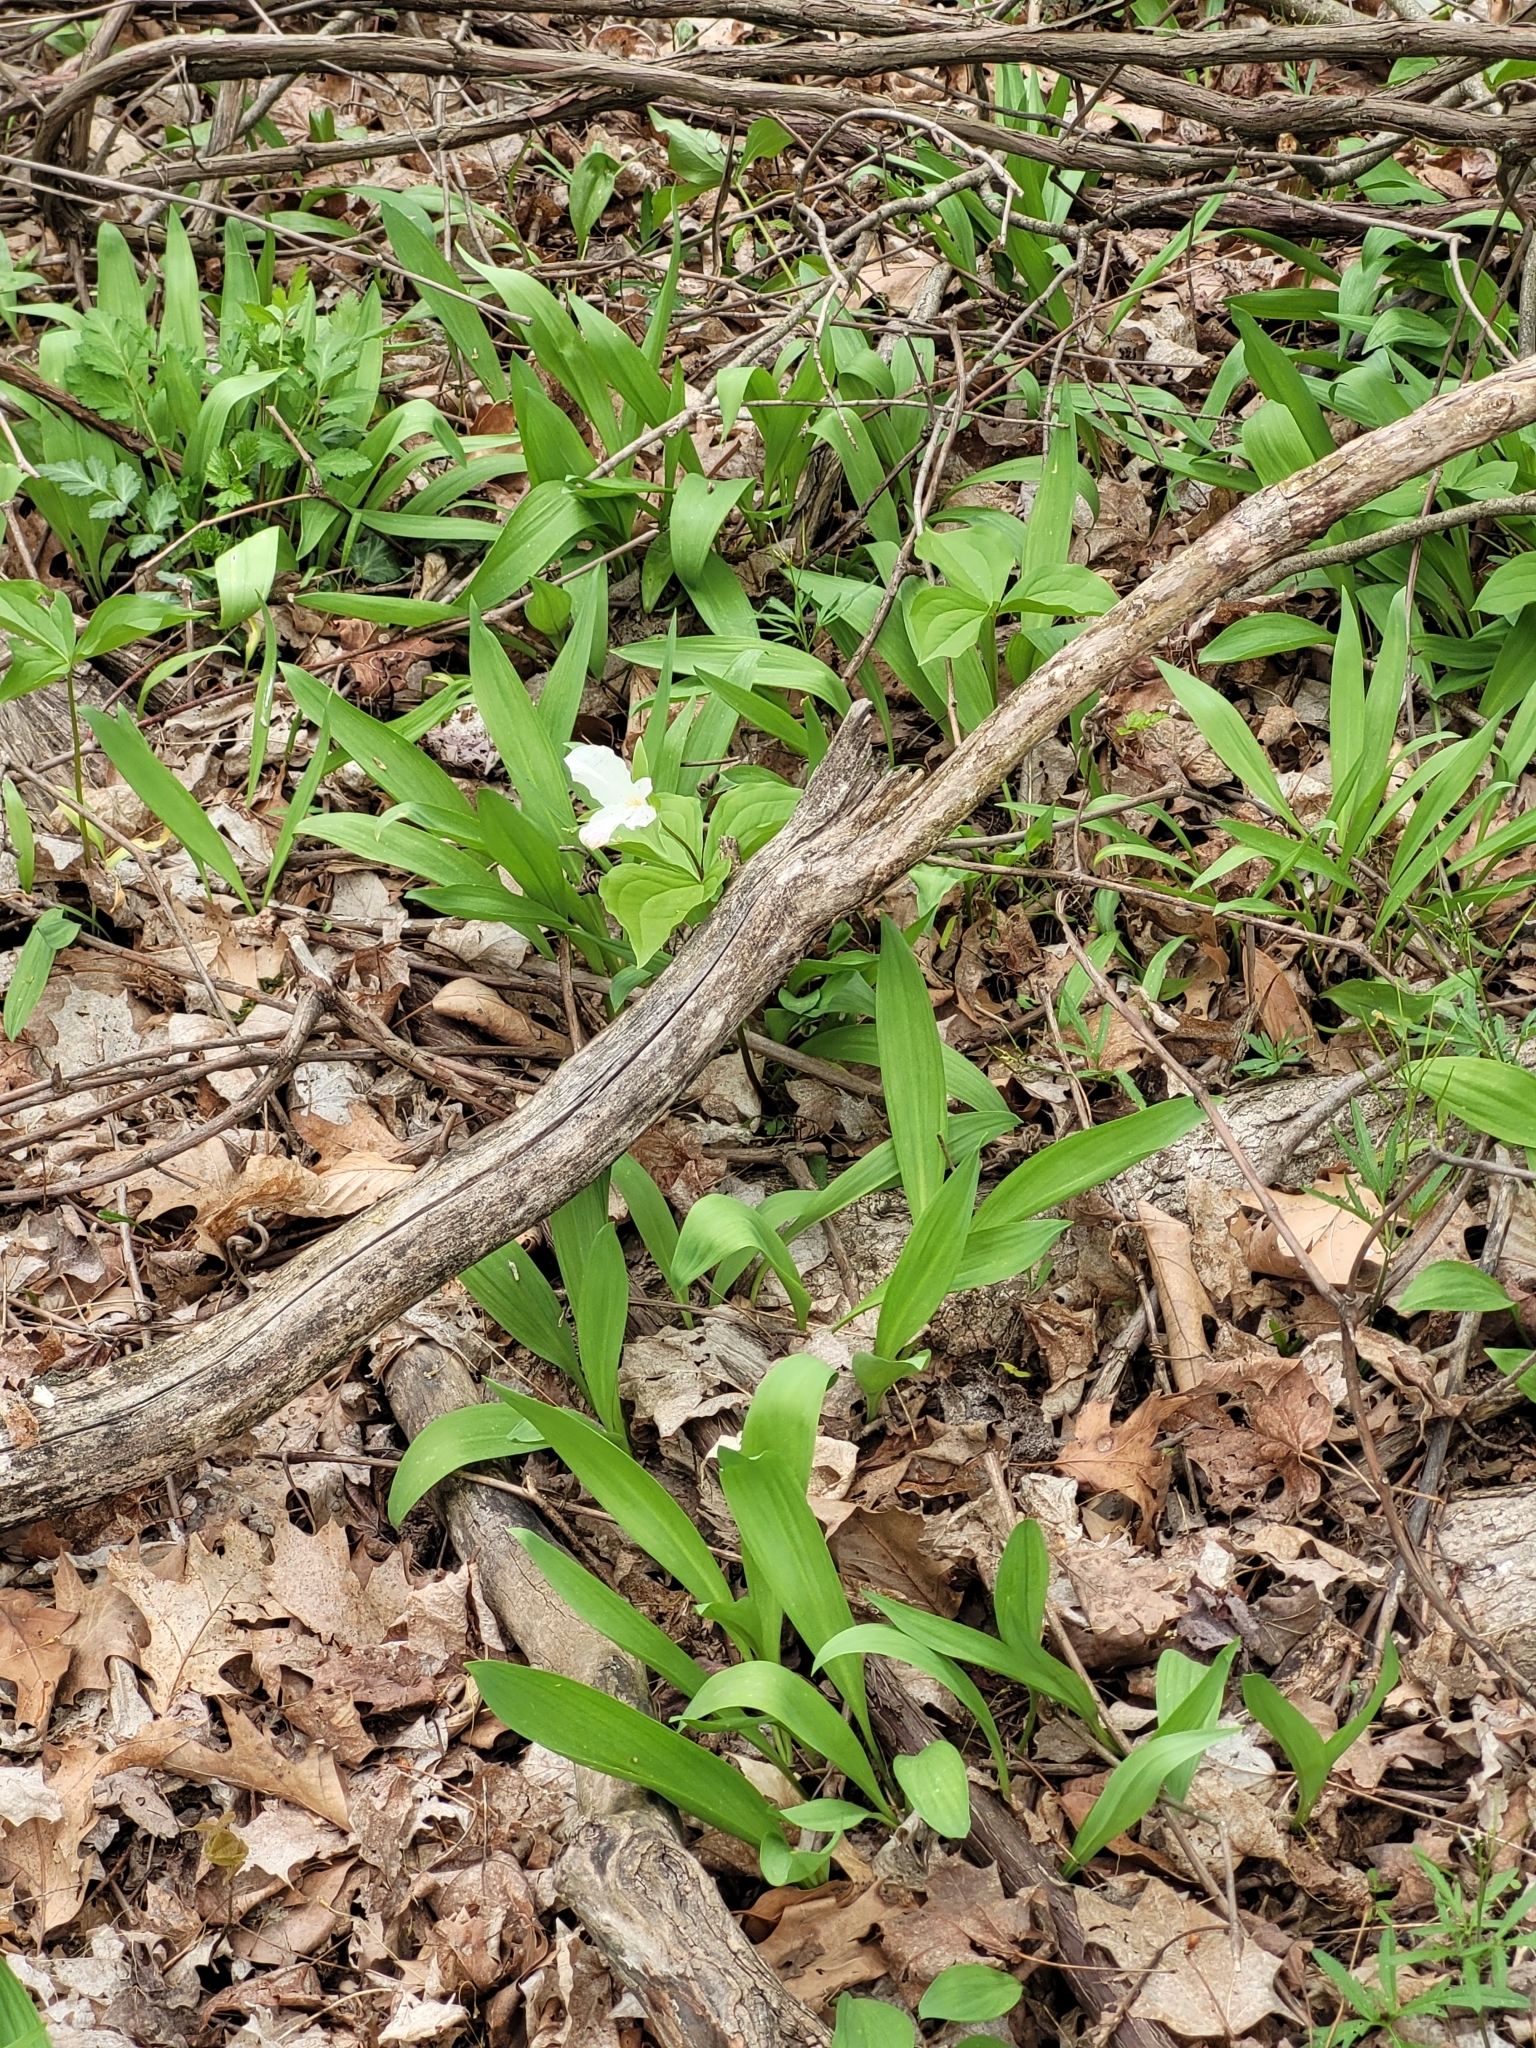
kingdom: Plantae
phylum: Tracheophyta
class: Liliopsida
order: Liliales
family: Melanthiaceae
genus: Trillium
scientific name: Trillium grandiflorum
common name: Great white trillium
